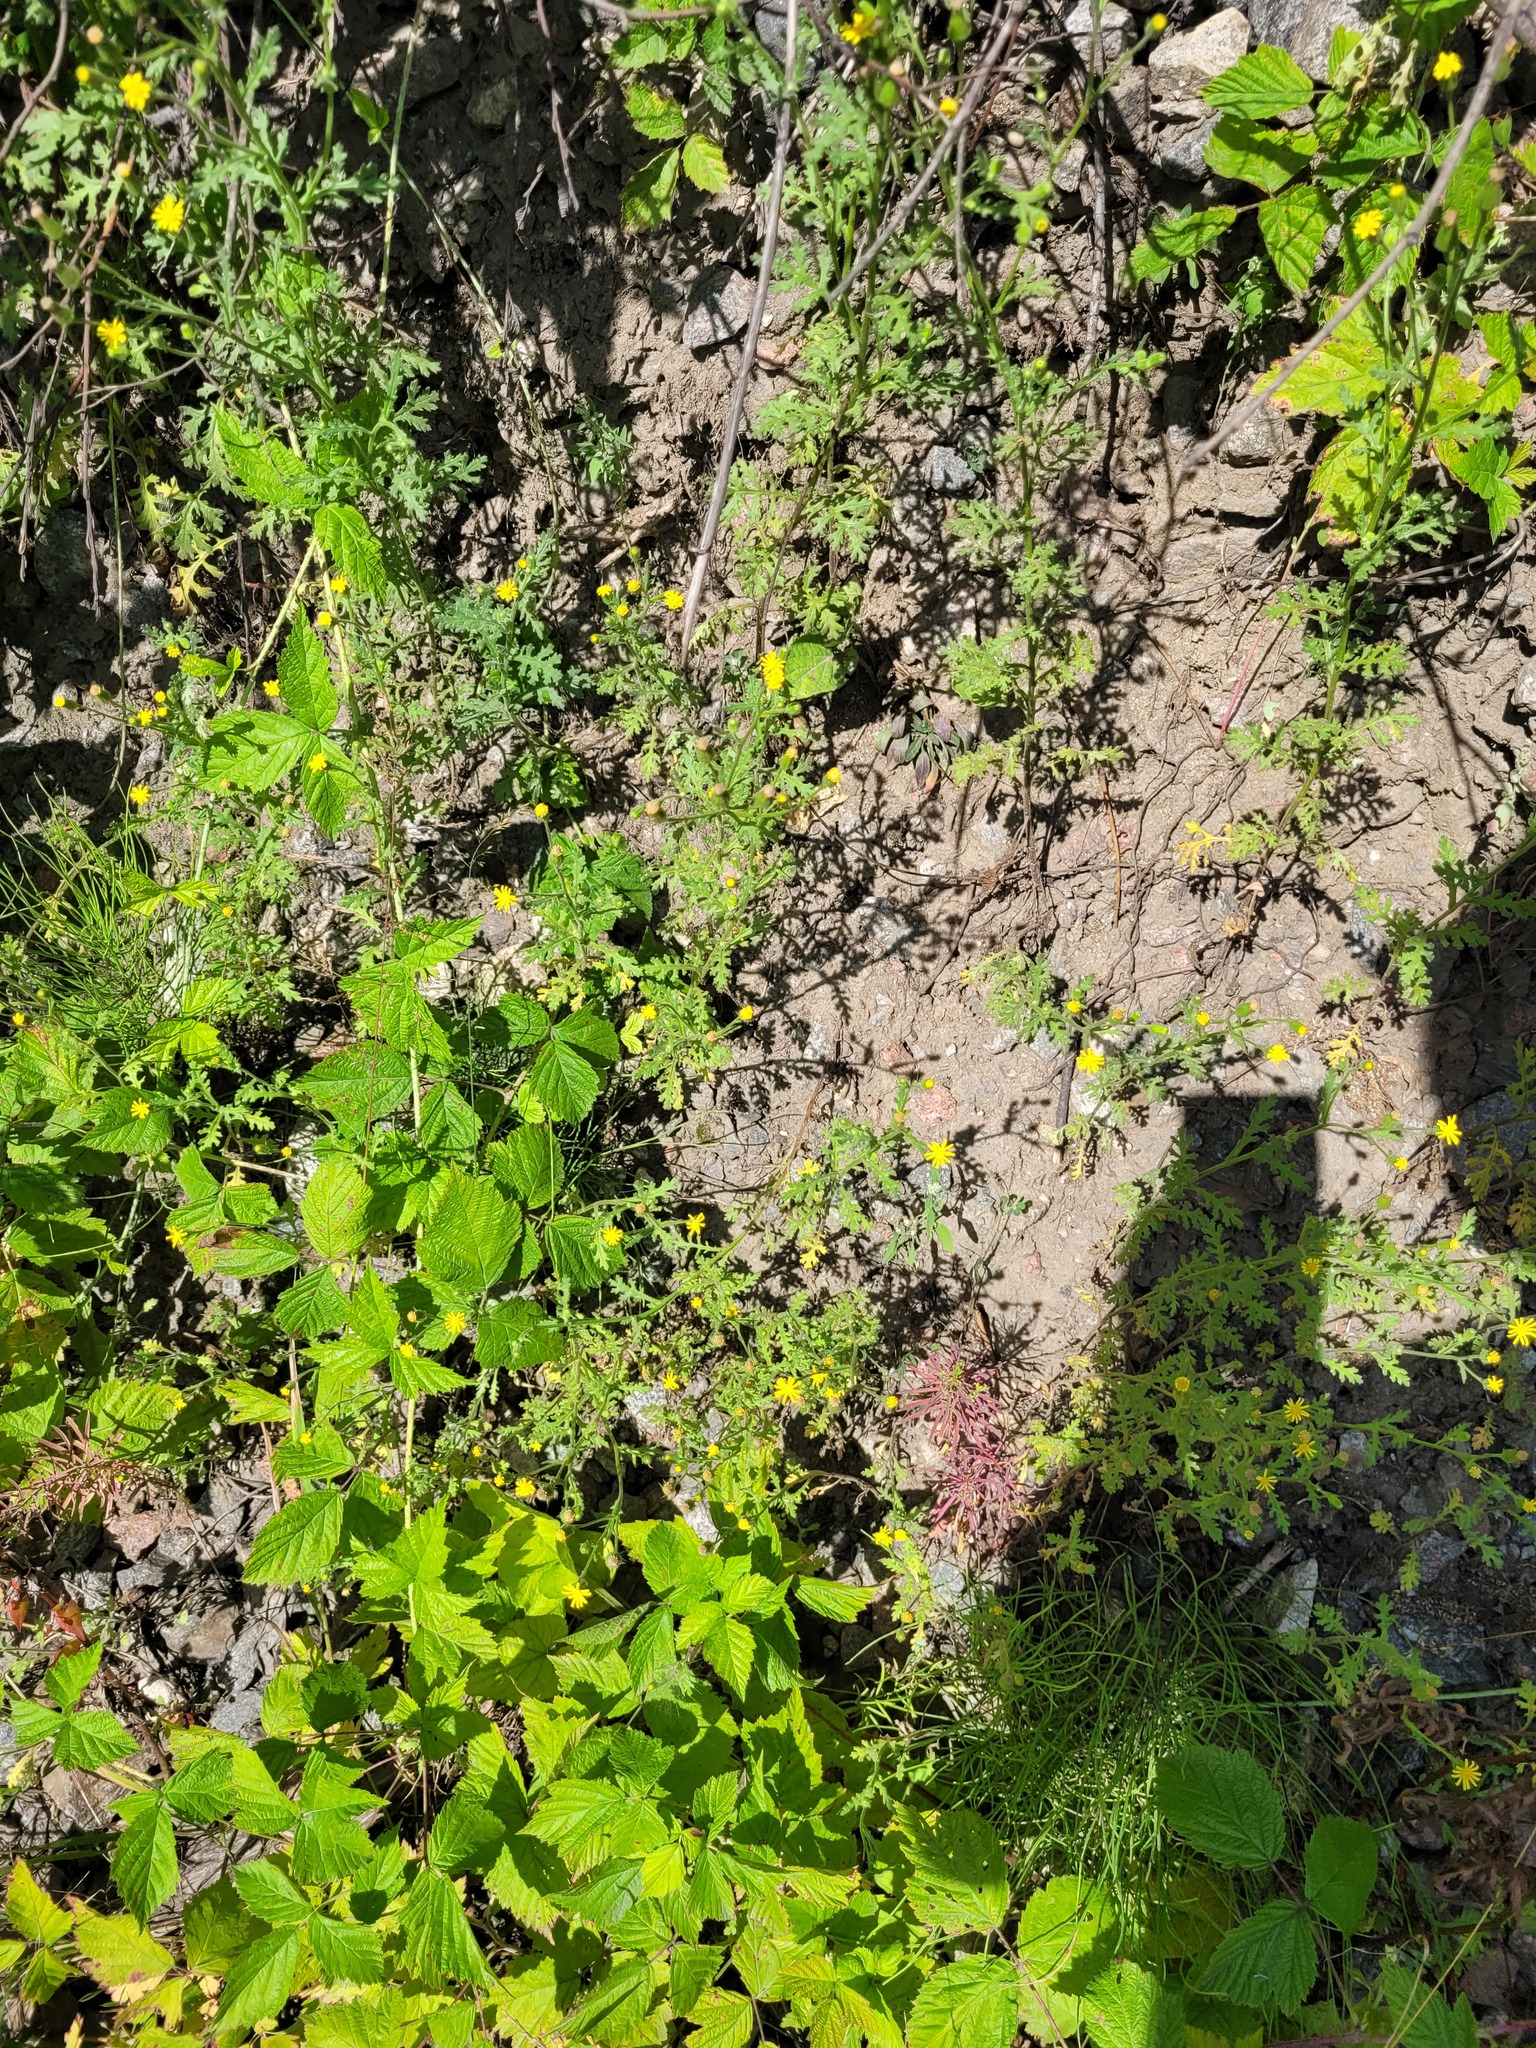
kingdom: Plantae
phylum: Tracheophyta
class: Magnoliopsida
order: Asterales
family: Asteraceae
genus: Senecio
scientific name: Senecio viscosus
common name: Sticky groundsel
